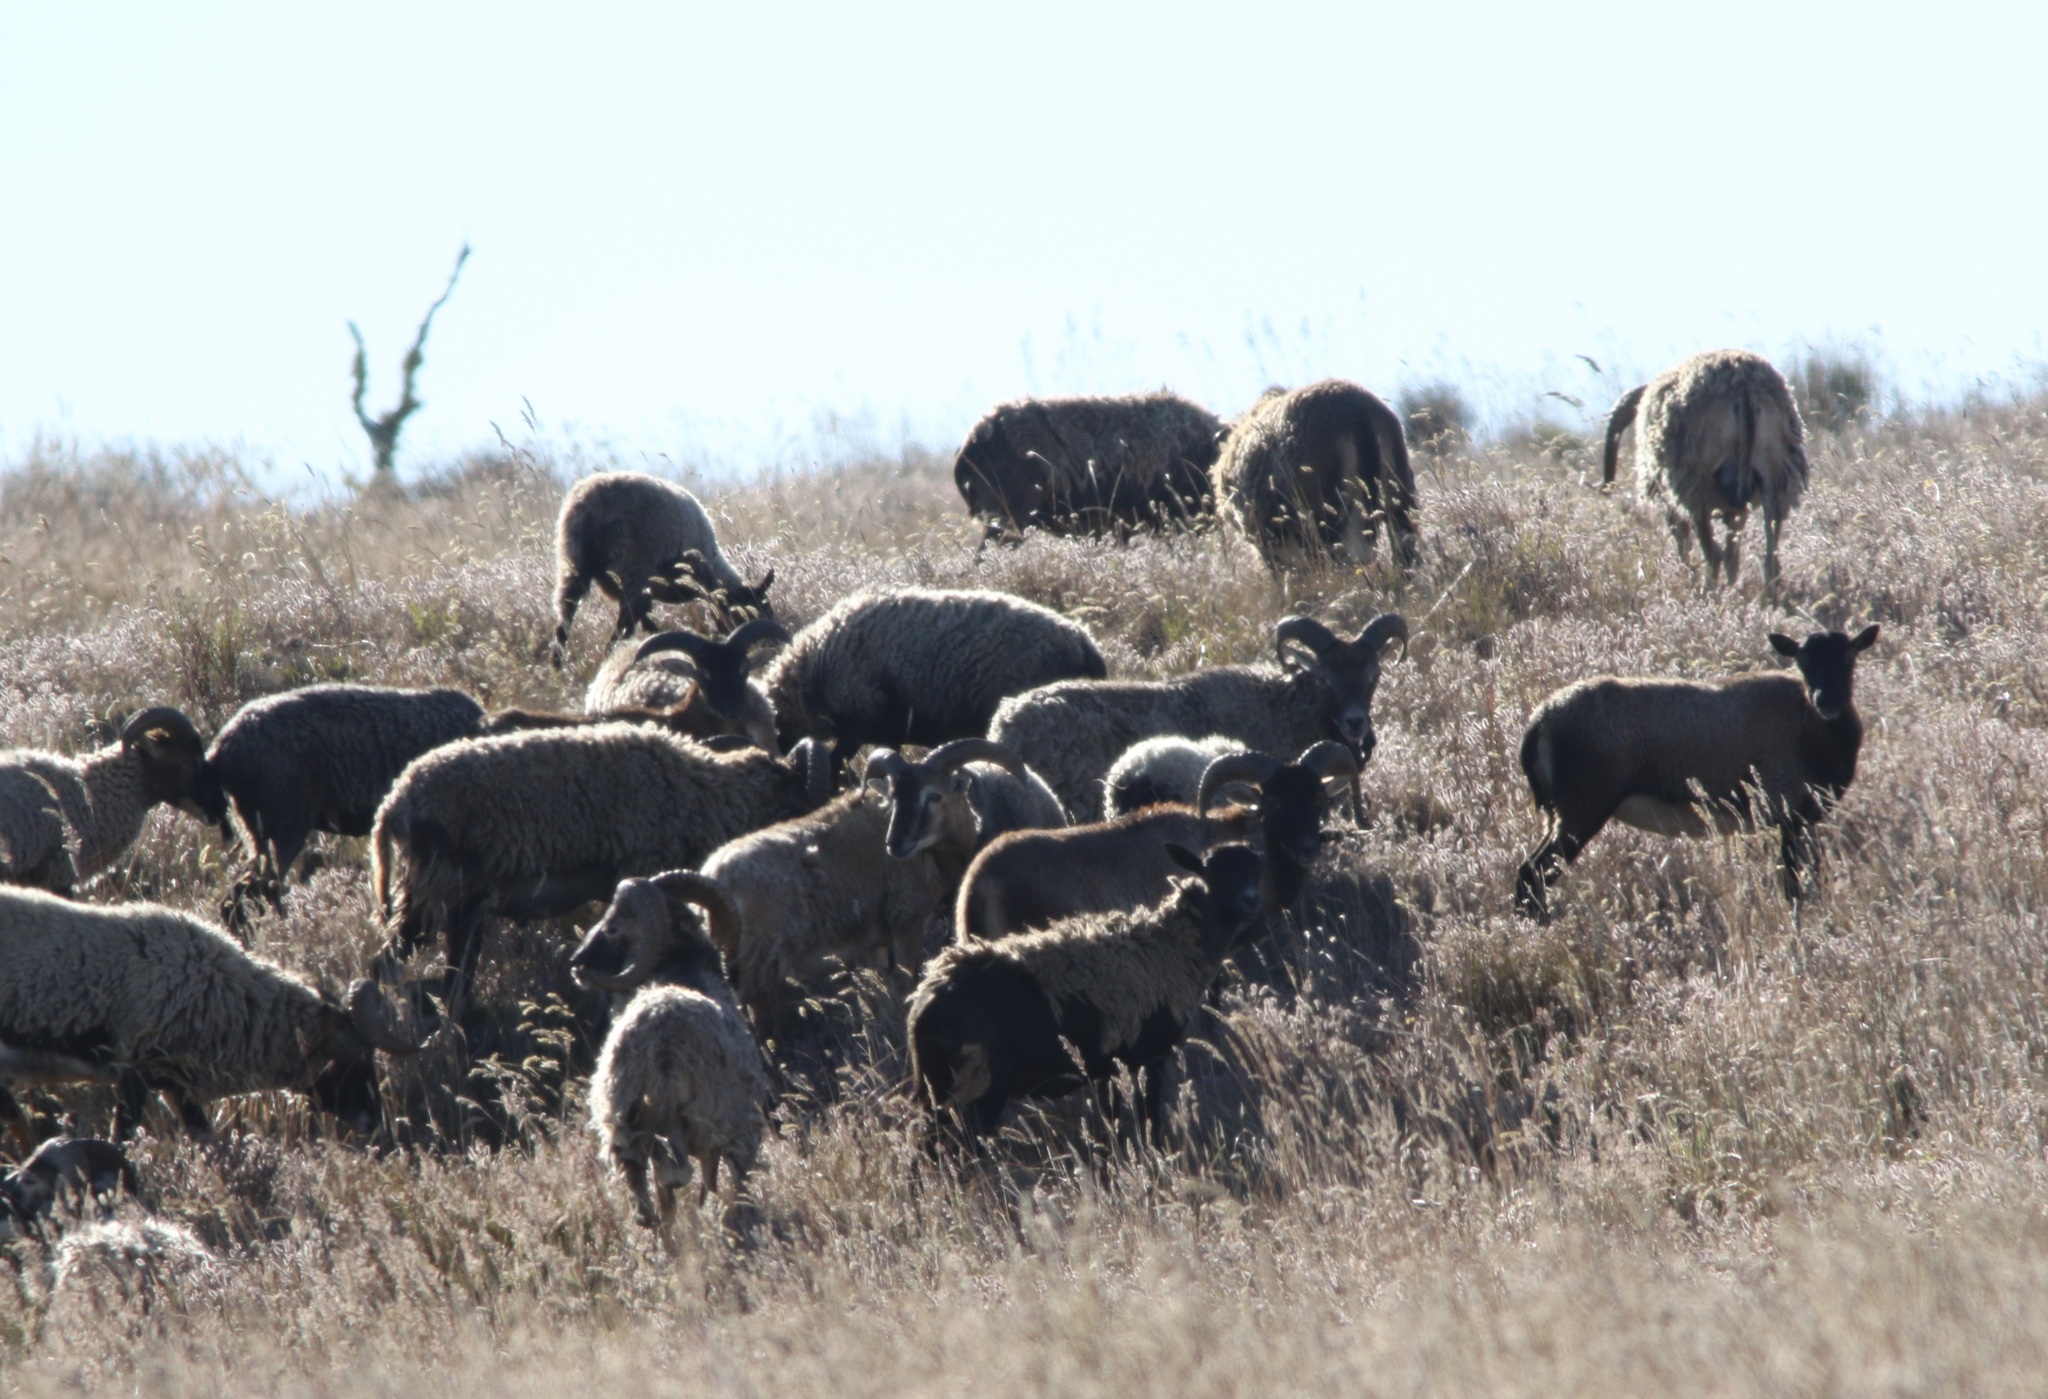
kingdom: Animalia
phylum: Chordata
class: Mammalia
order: Artiodactyla
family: Bovidae
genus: Ovis
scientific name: Ovis aries
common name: Domestic sheep
